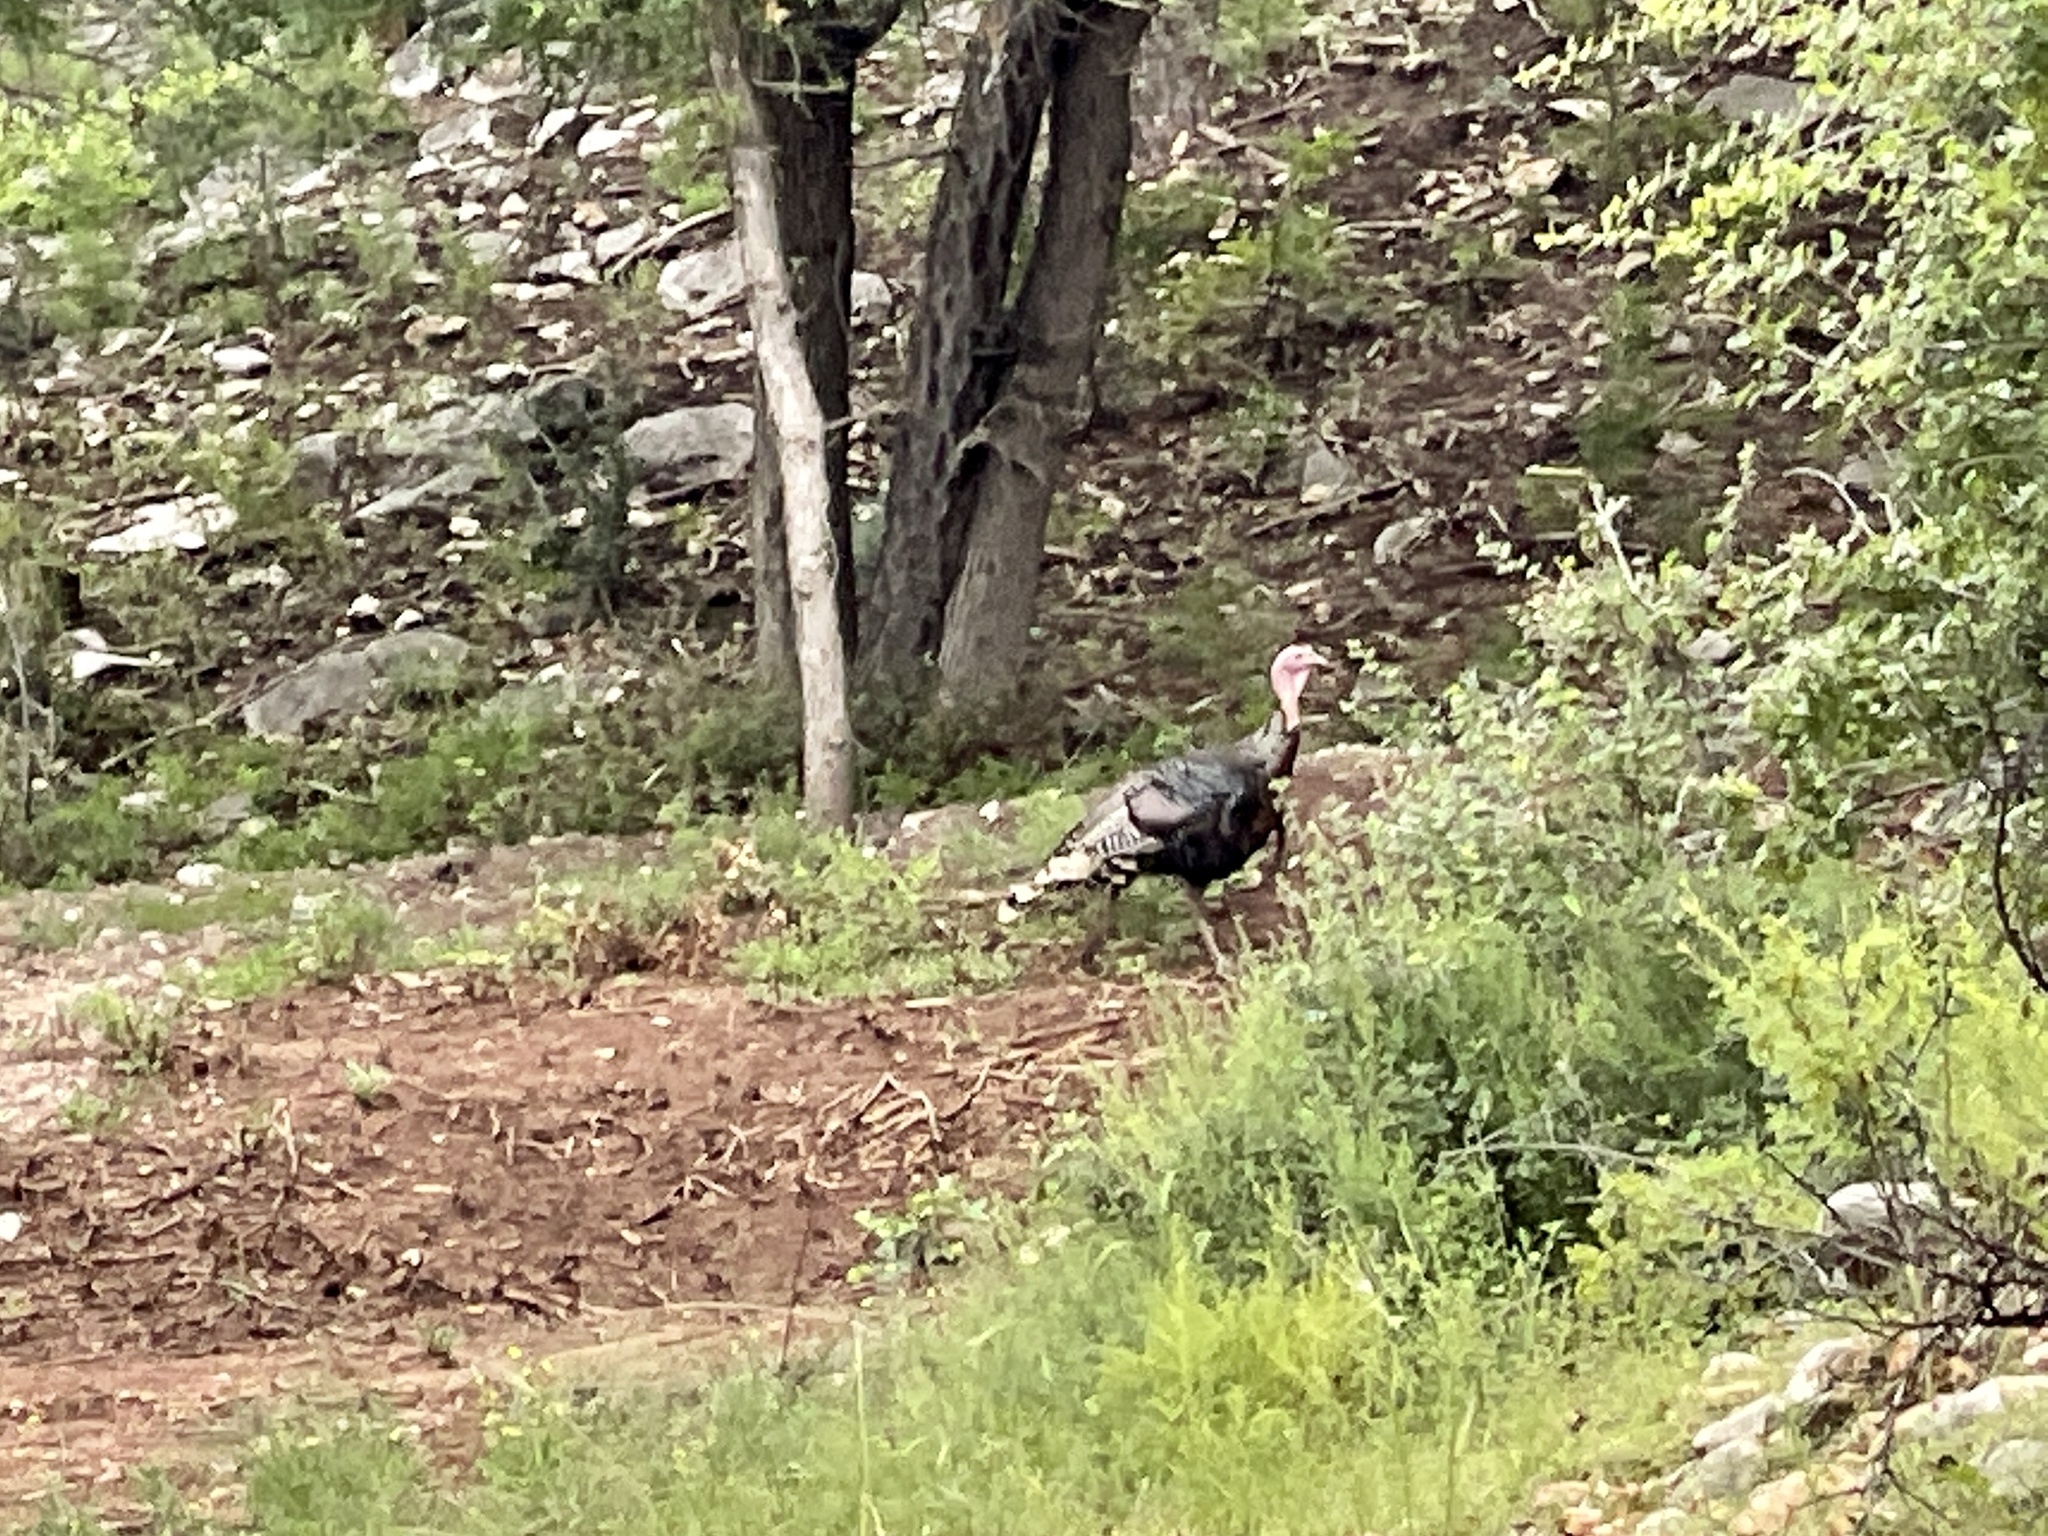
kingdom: Animalia
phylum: Chordata
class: Aves
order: Galliformes
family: Phasianidae
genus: Meleagris
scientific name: Meleagris gallopavo
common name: Wild turkey
